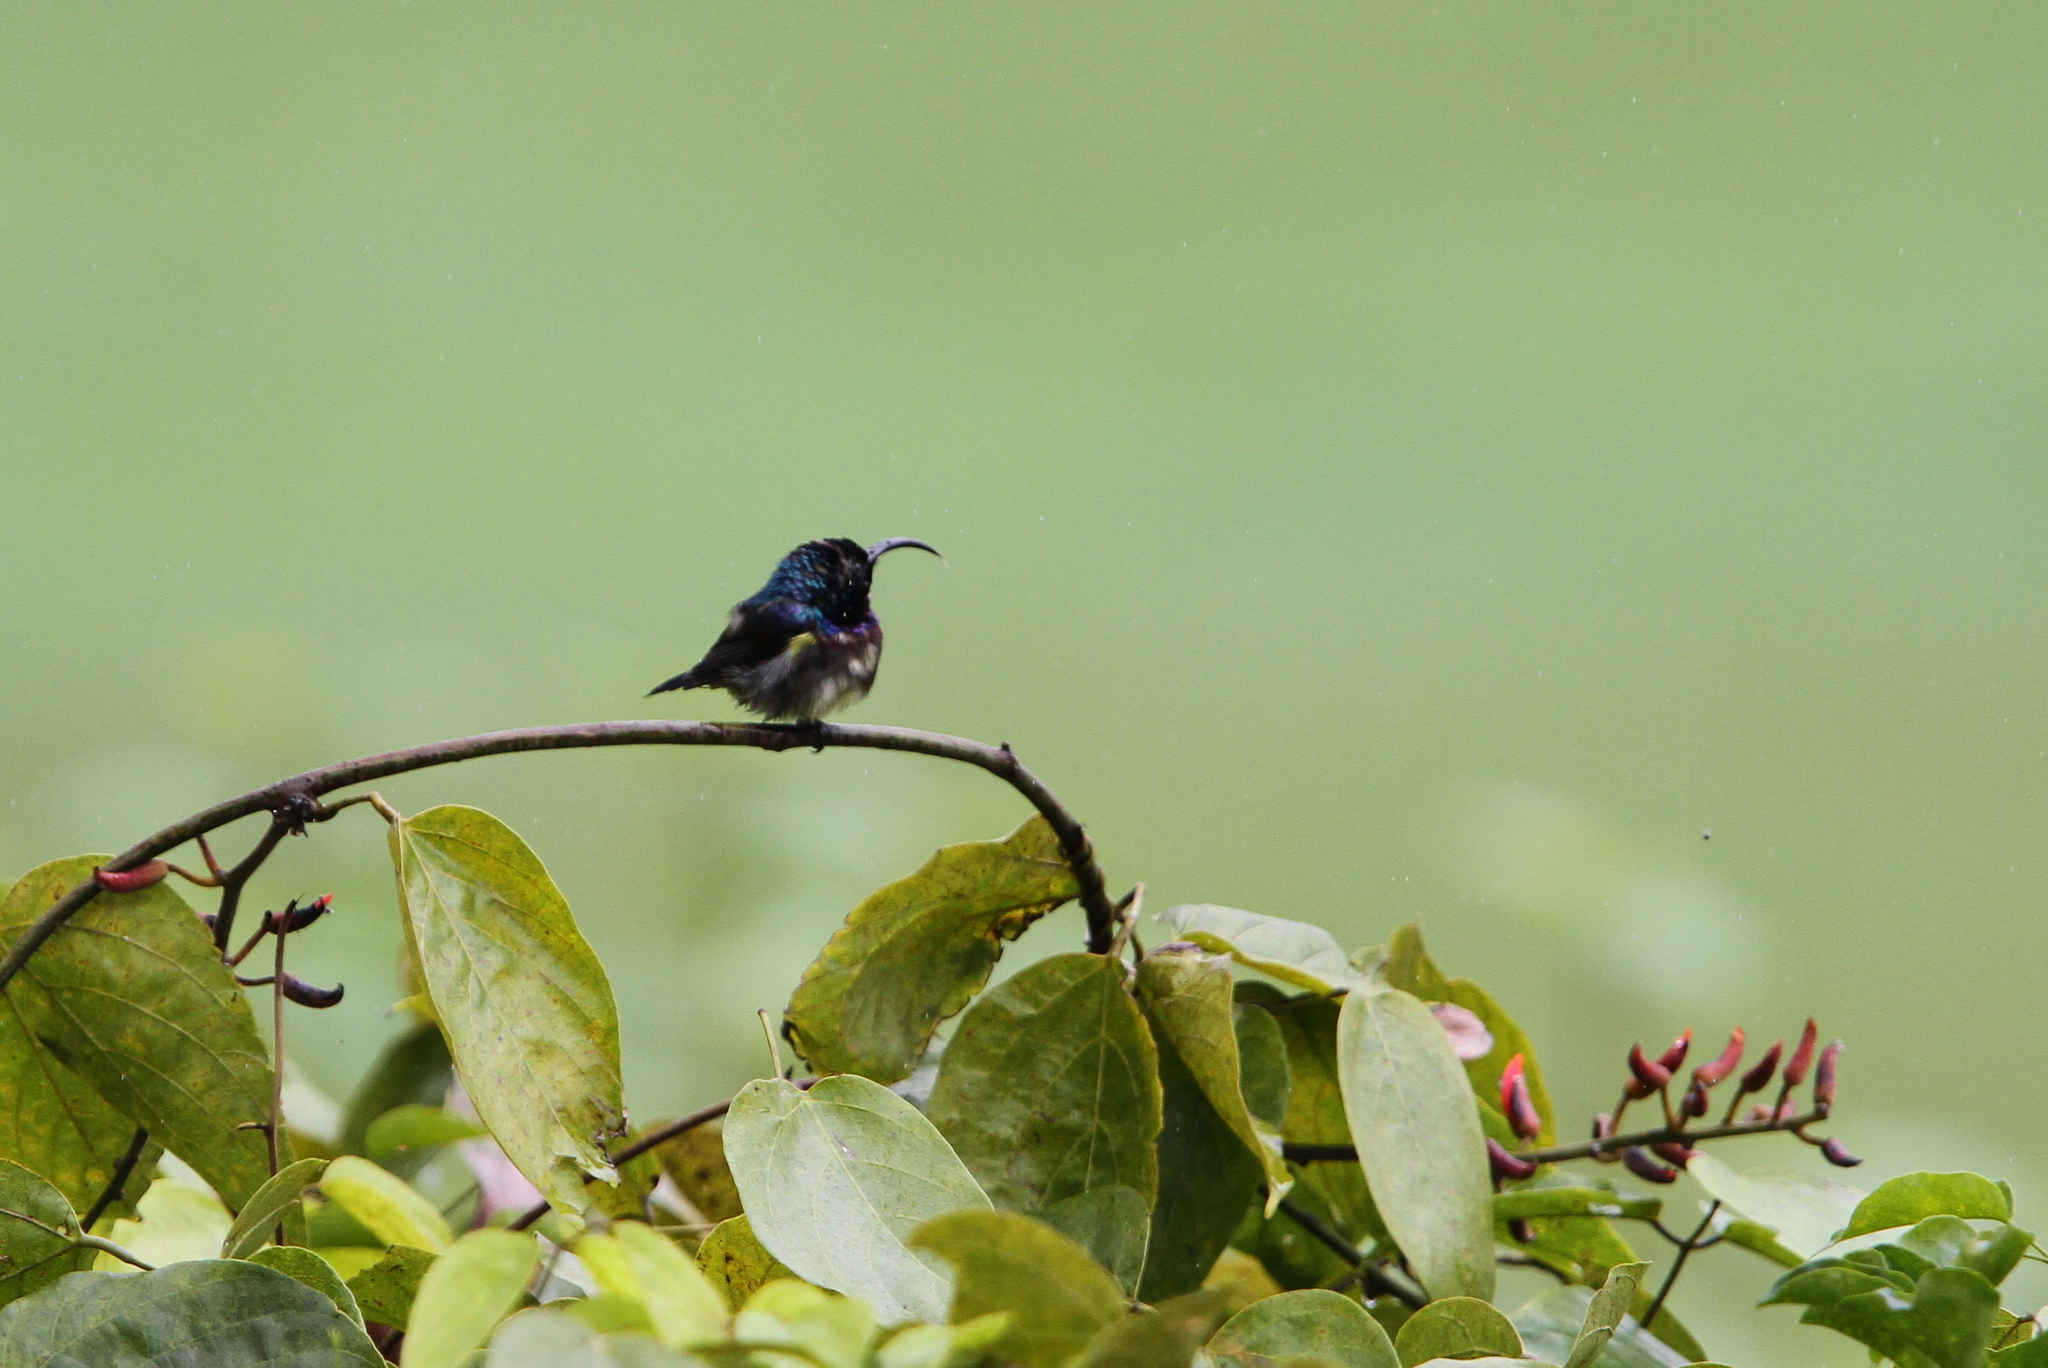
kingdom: Animalia
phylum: Chordata
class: Aves
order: Passeriformes
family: Nectariniidae
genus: Cinnyris
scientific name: Cinnyris lotenius
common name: Loten's sunbird
